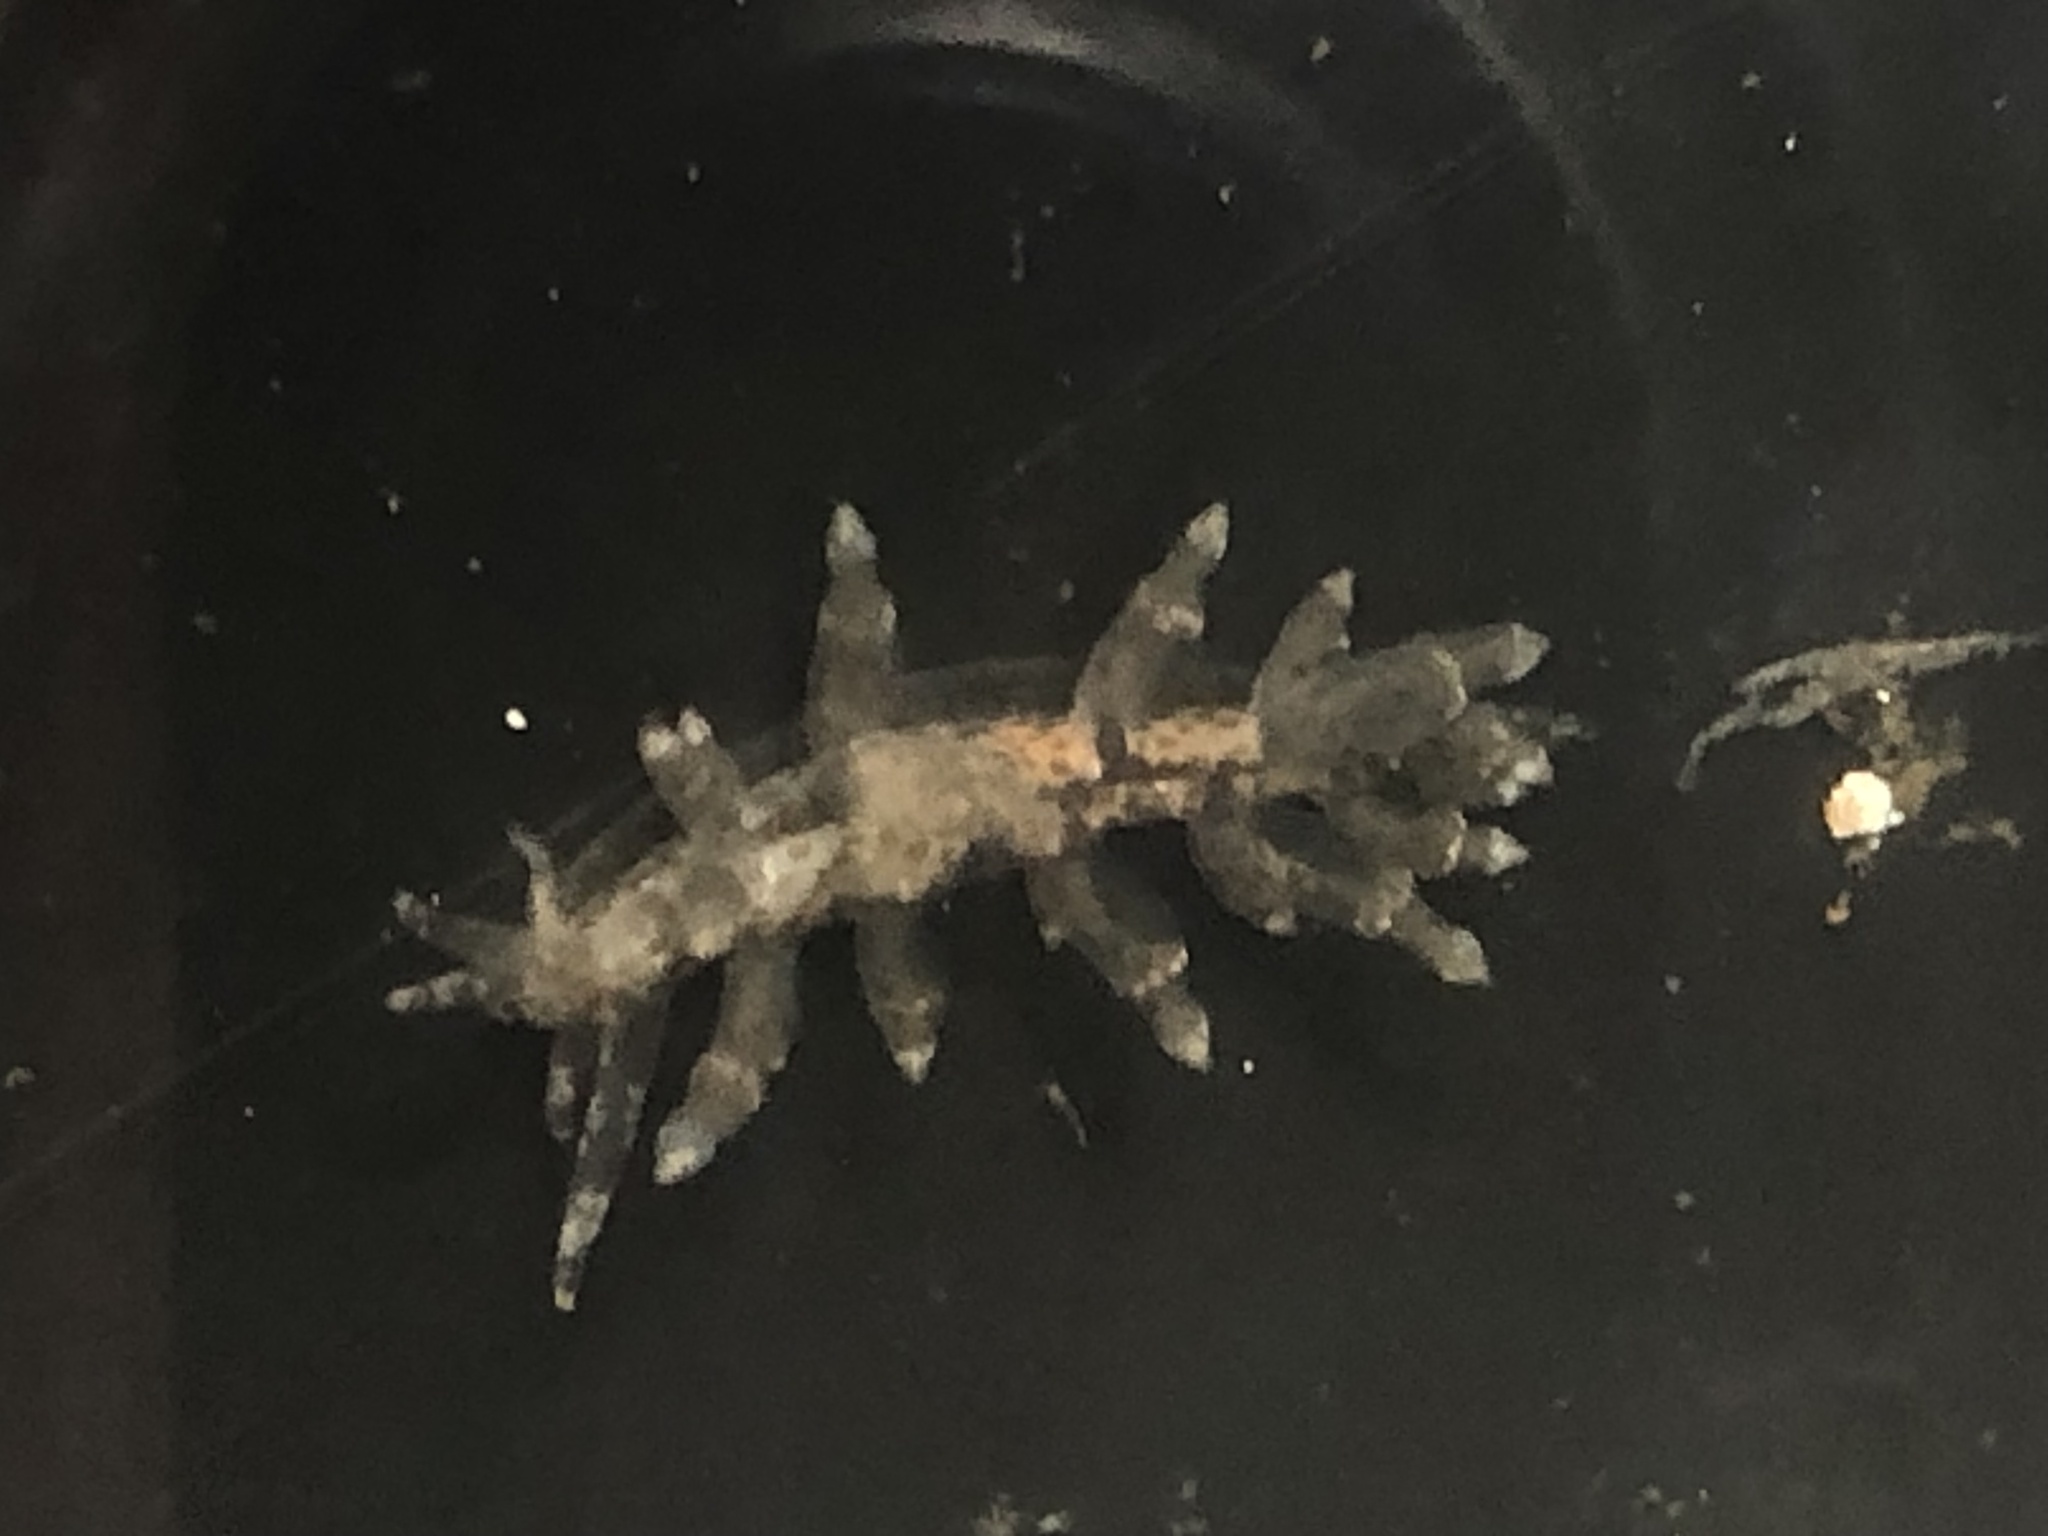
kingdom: Animalia
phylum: Mollusca
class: Gastropoda
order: Nudibranchia
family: Eubranchidae
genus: Leostyletus
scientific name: Leostyletus misakiensis
